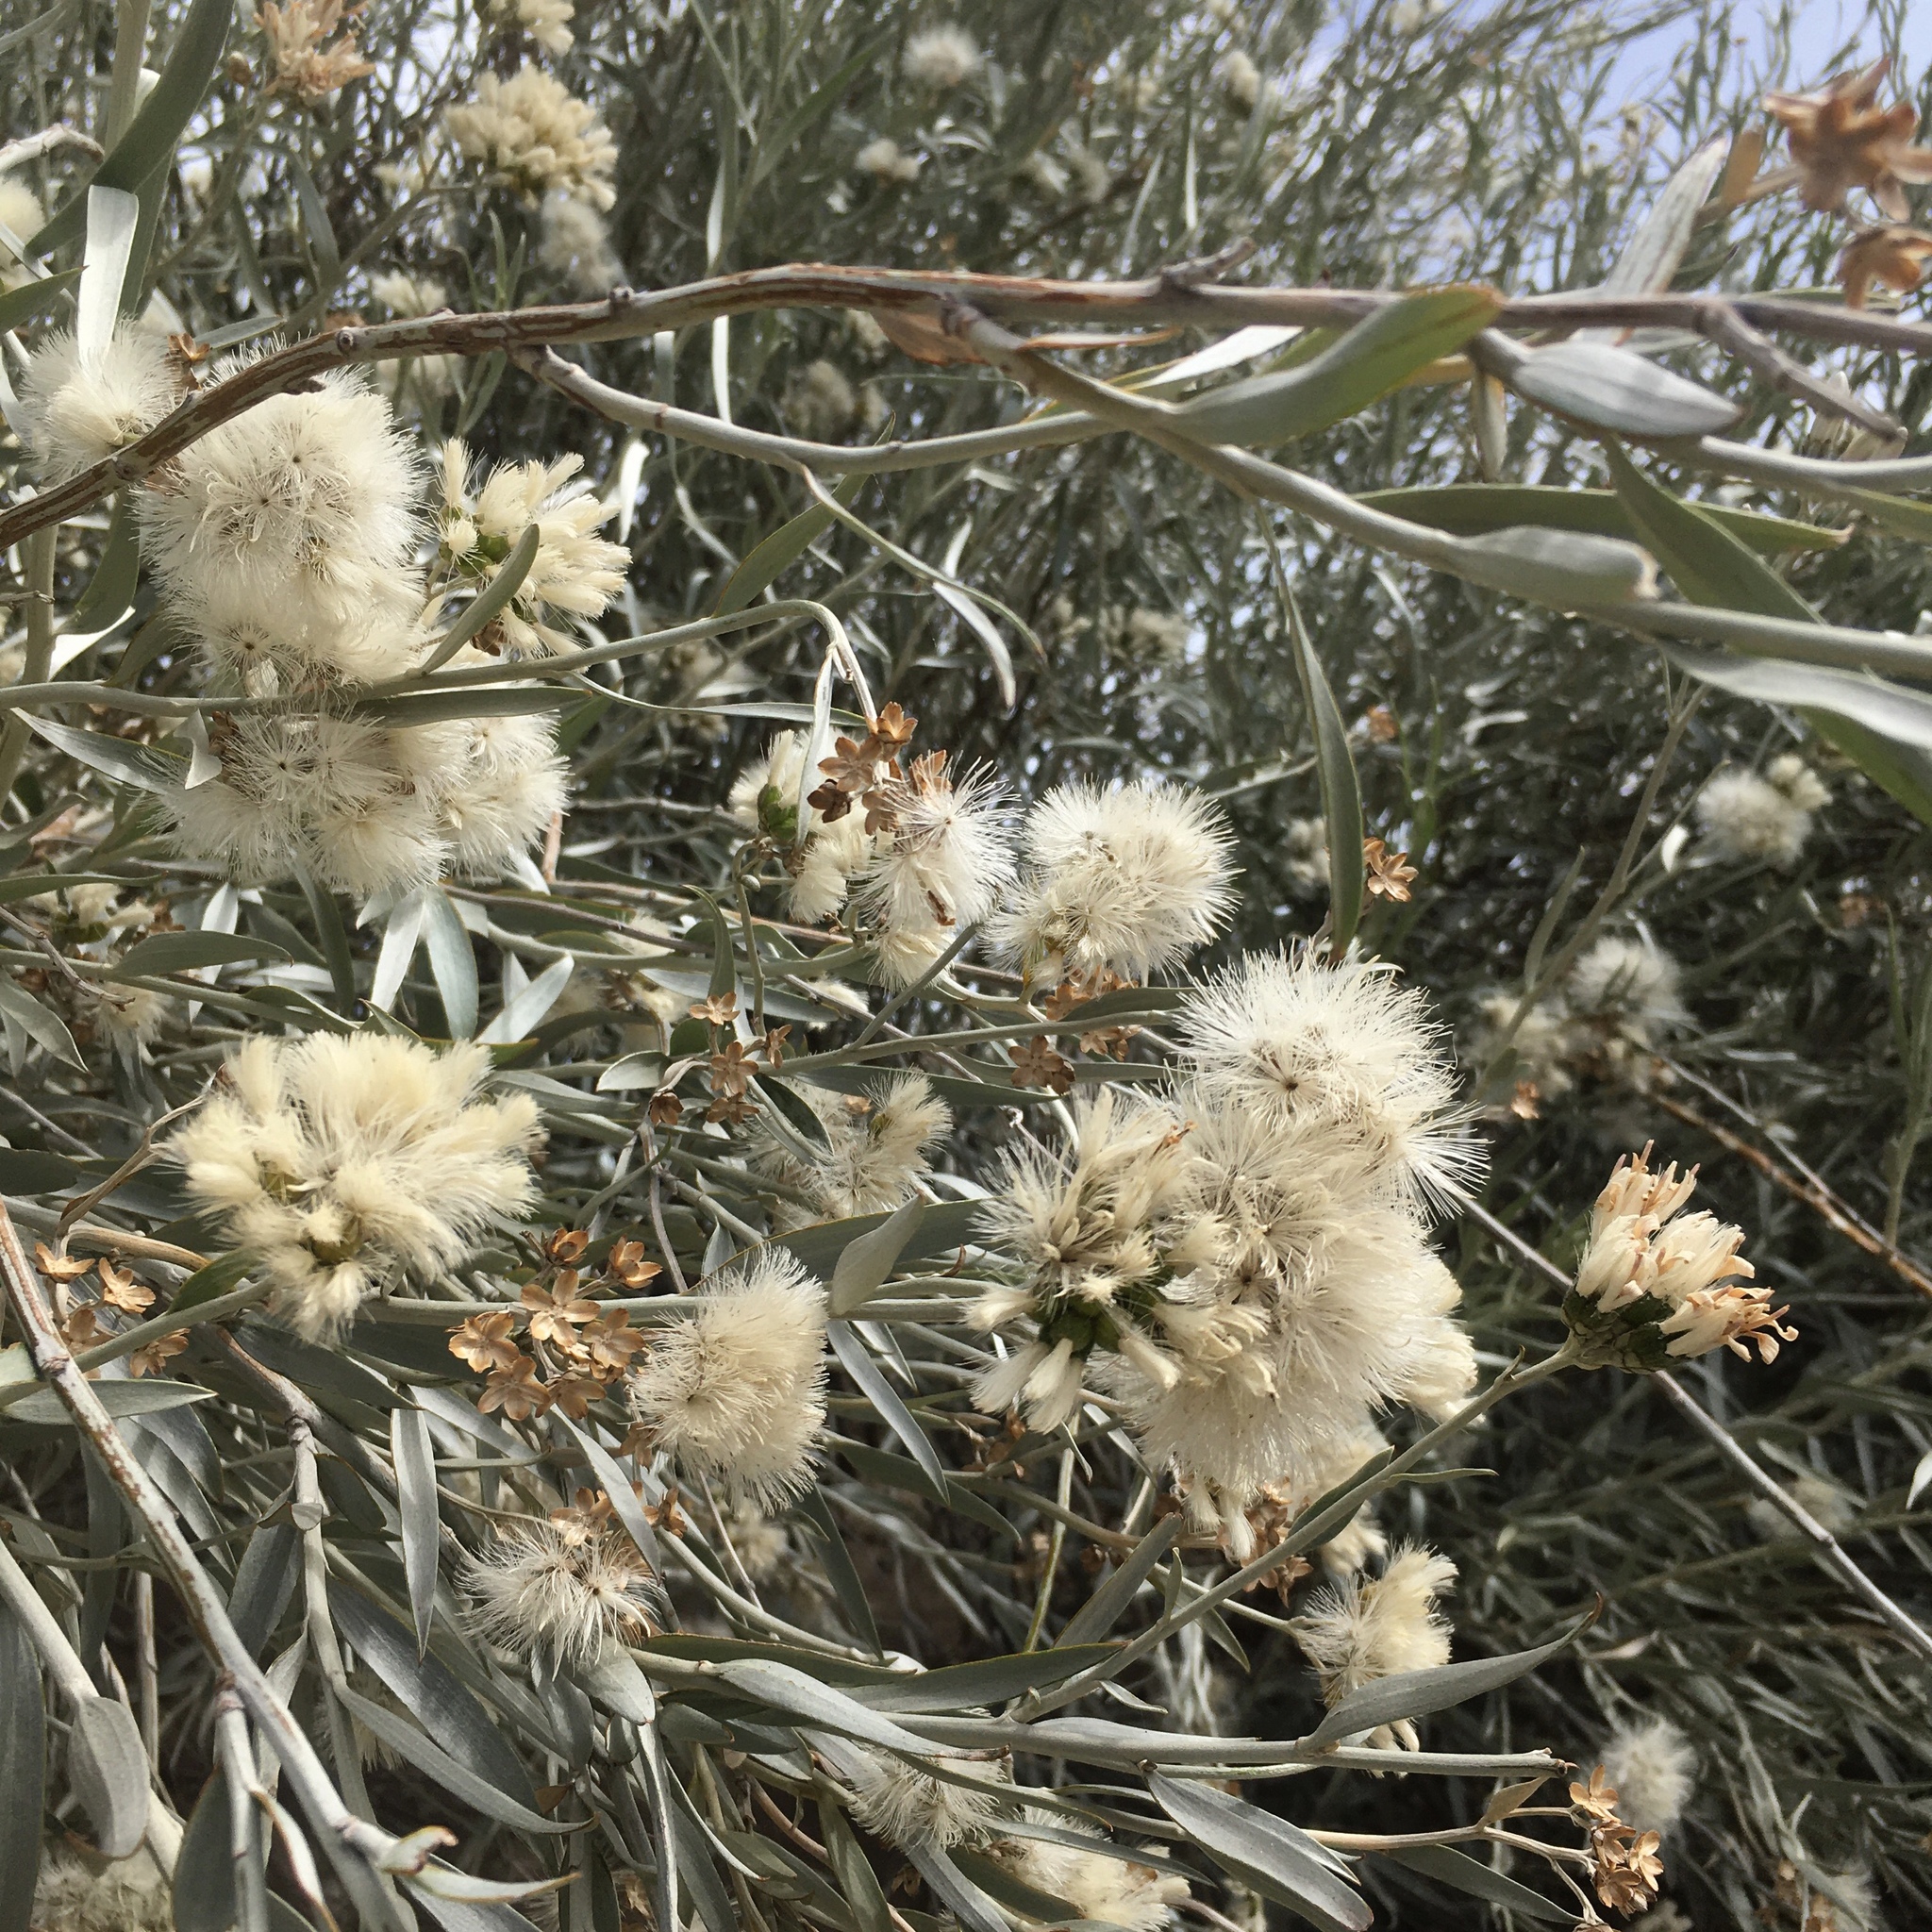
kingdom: Plantae
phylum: Tracheophyta
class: Magnoliopsida
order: Asterales
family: Asteraceae
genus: Hyalis
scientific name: Hyalis argentea
